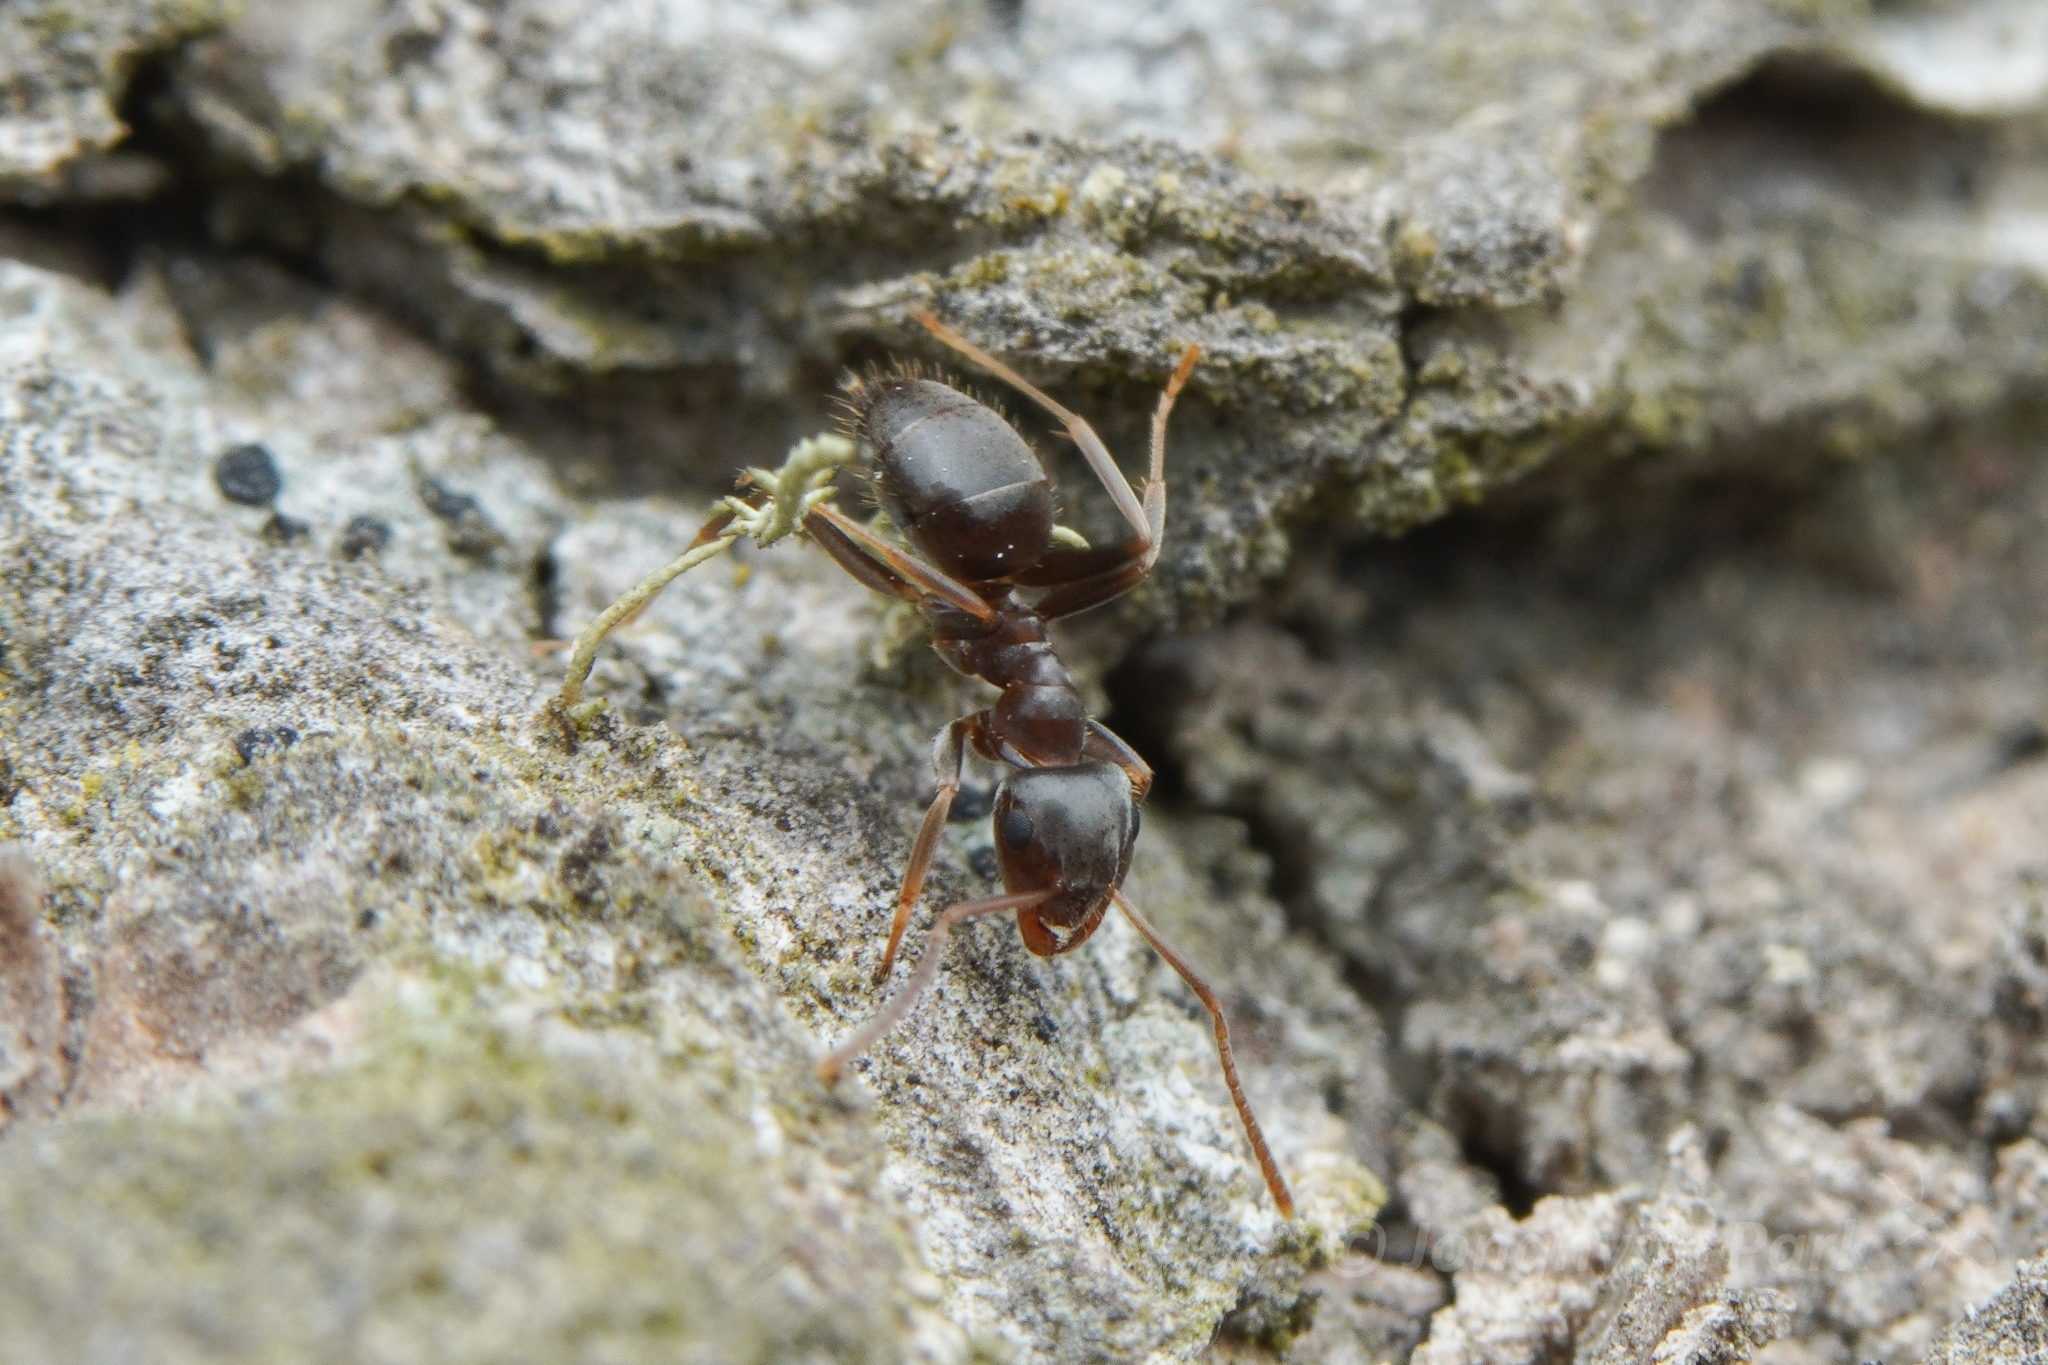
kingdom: Animalia
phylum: Arthropoda
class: Insecta
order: Hymenoptera
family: Formicidae
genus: Lasius
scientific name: Lasius americanus
